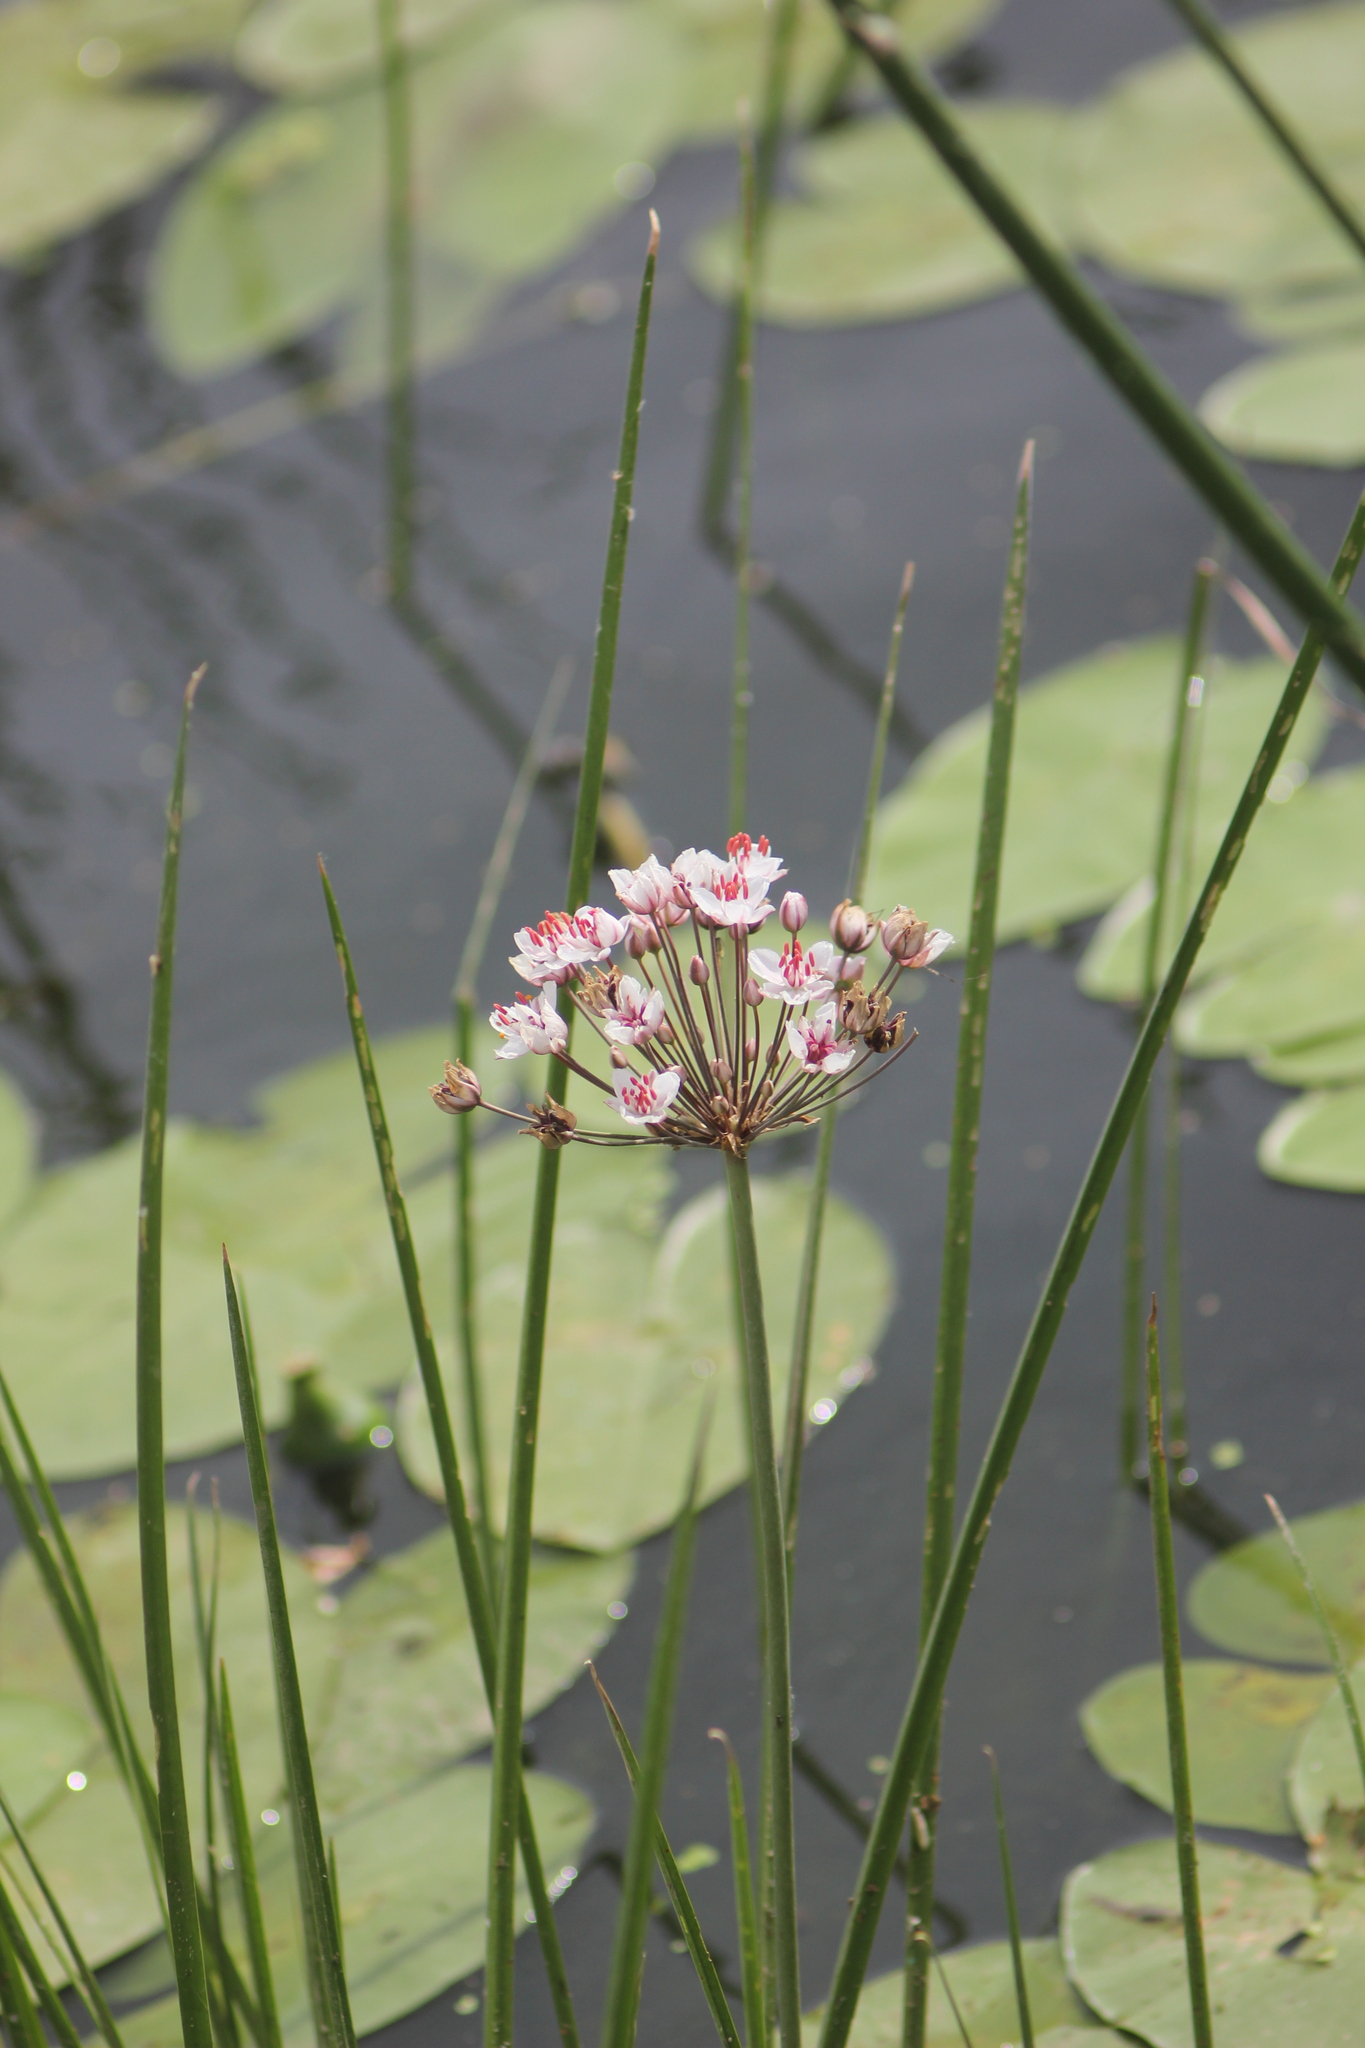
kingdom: Plantae
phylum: Tracheophyta
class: Liliopsida
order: Alismatales
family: Butomaceae
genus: Butomus
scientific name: Butomus umbellatus
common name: Flowering-rush
